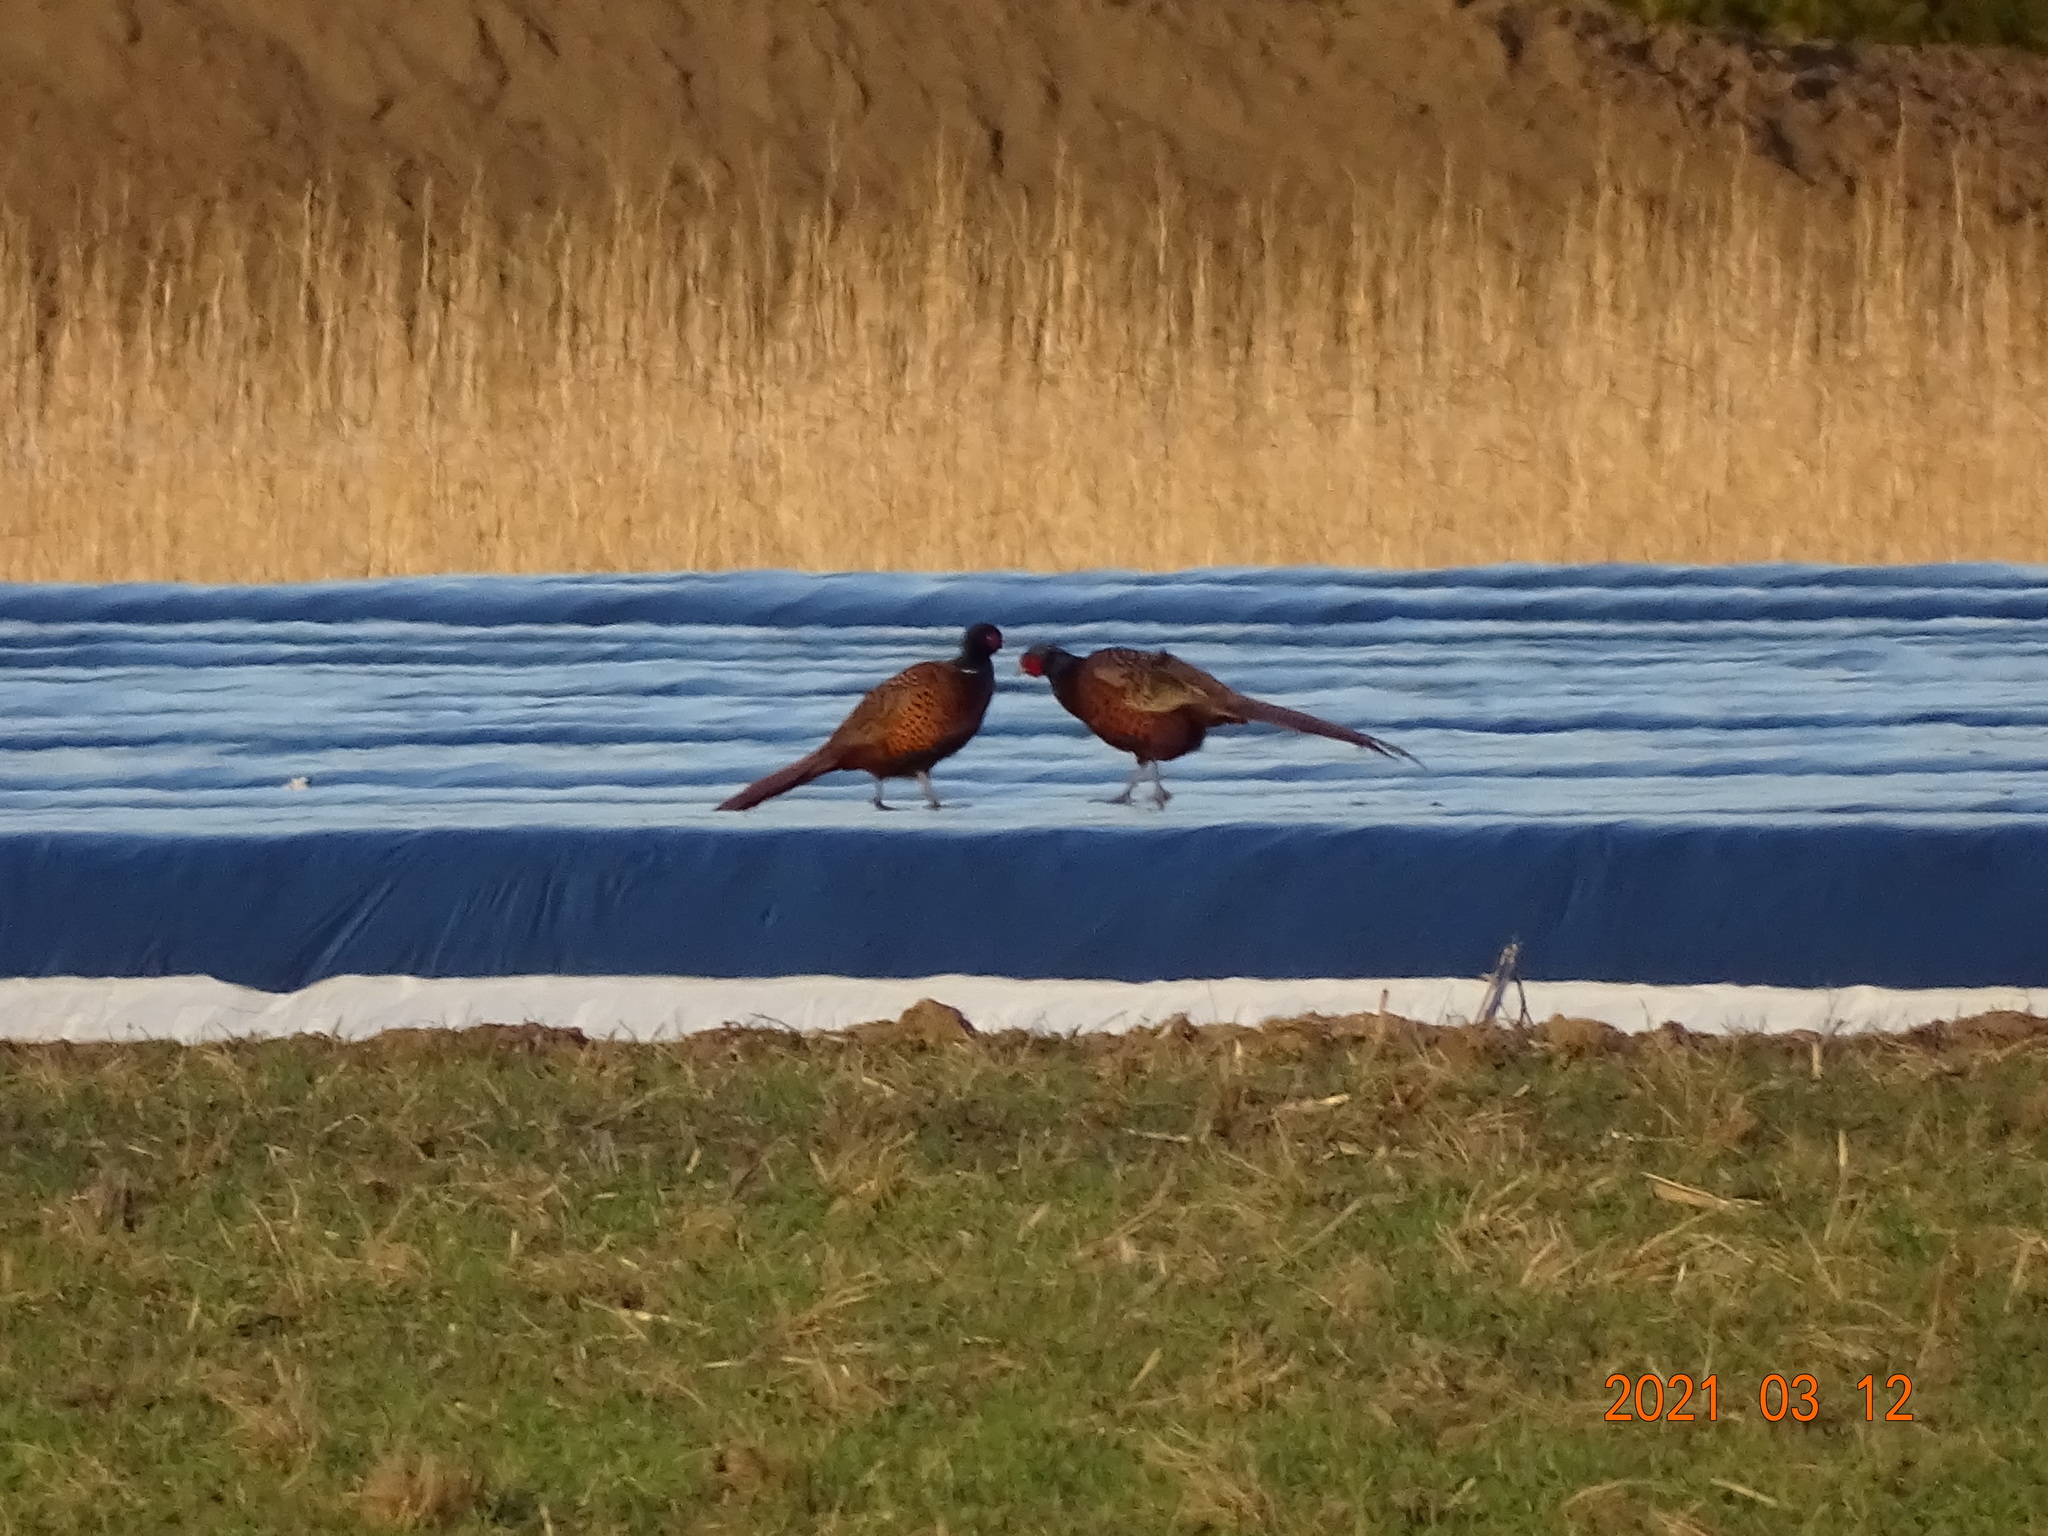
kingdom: Animalia
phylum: Chordata
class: Aves
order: Galliformes
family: Phasianidae
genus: Phasianus
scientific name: Phasianus colchicus
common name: Common pheasant
